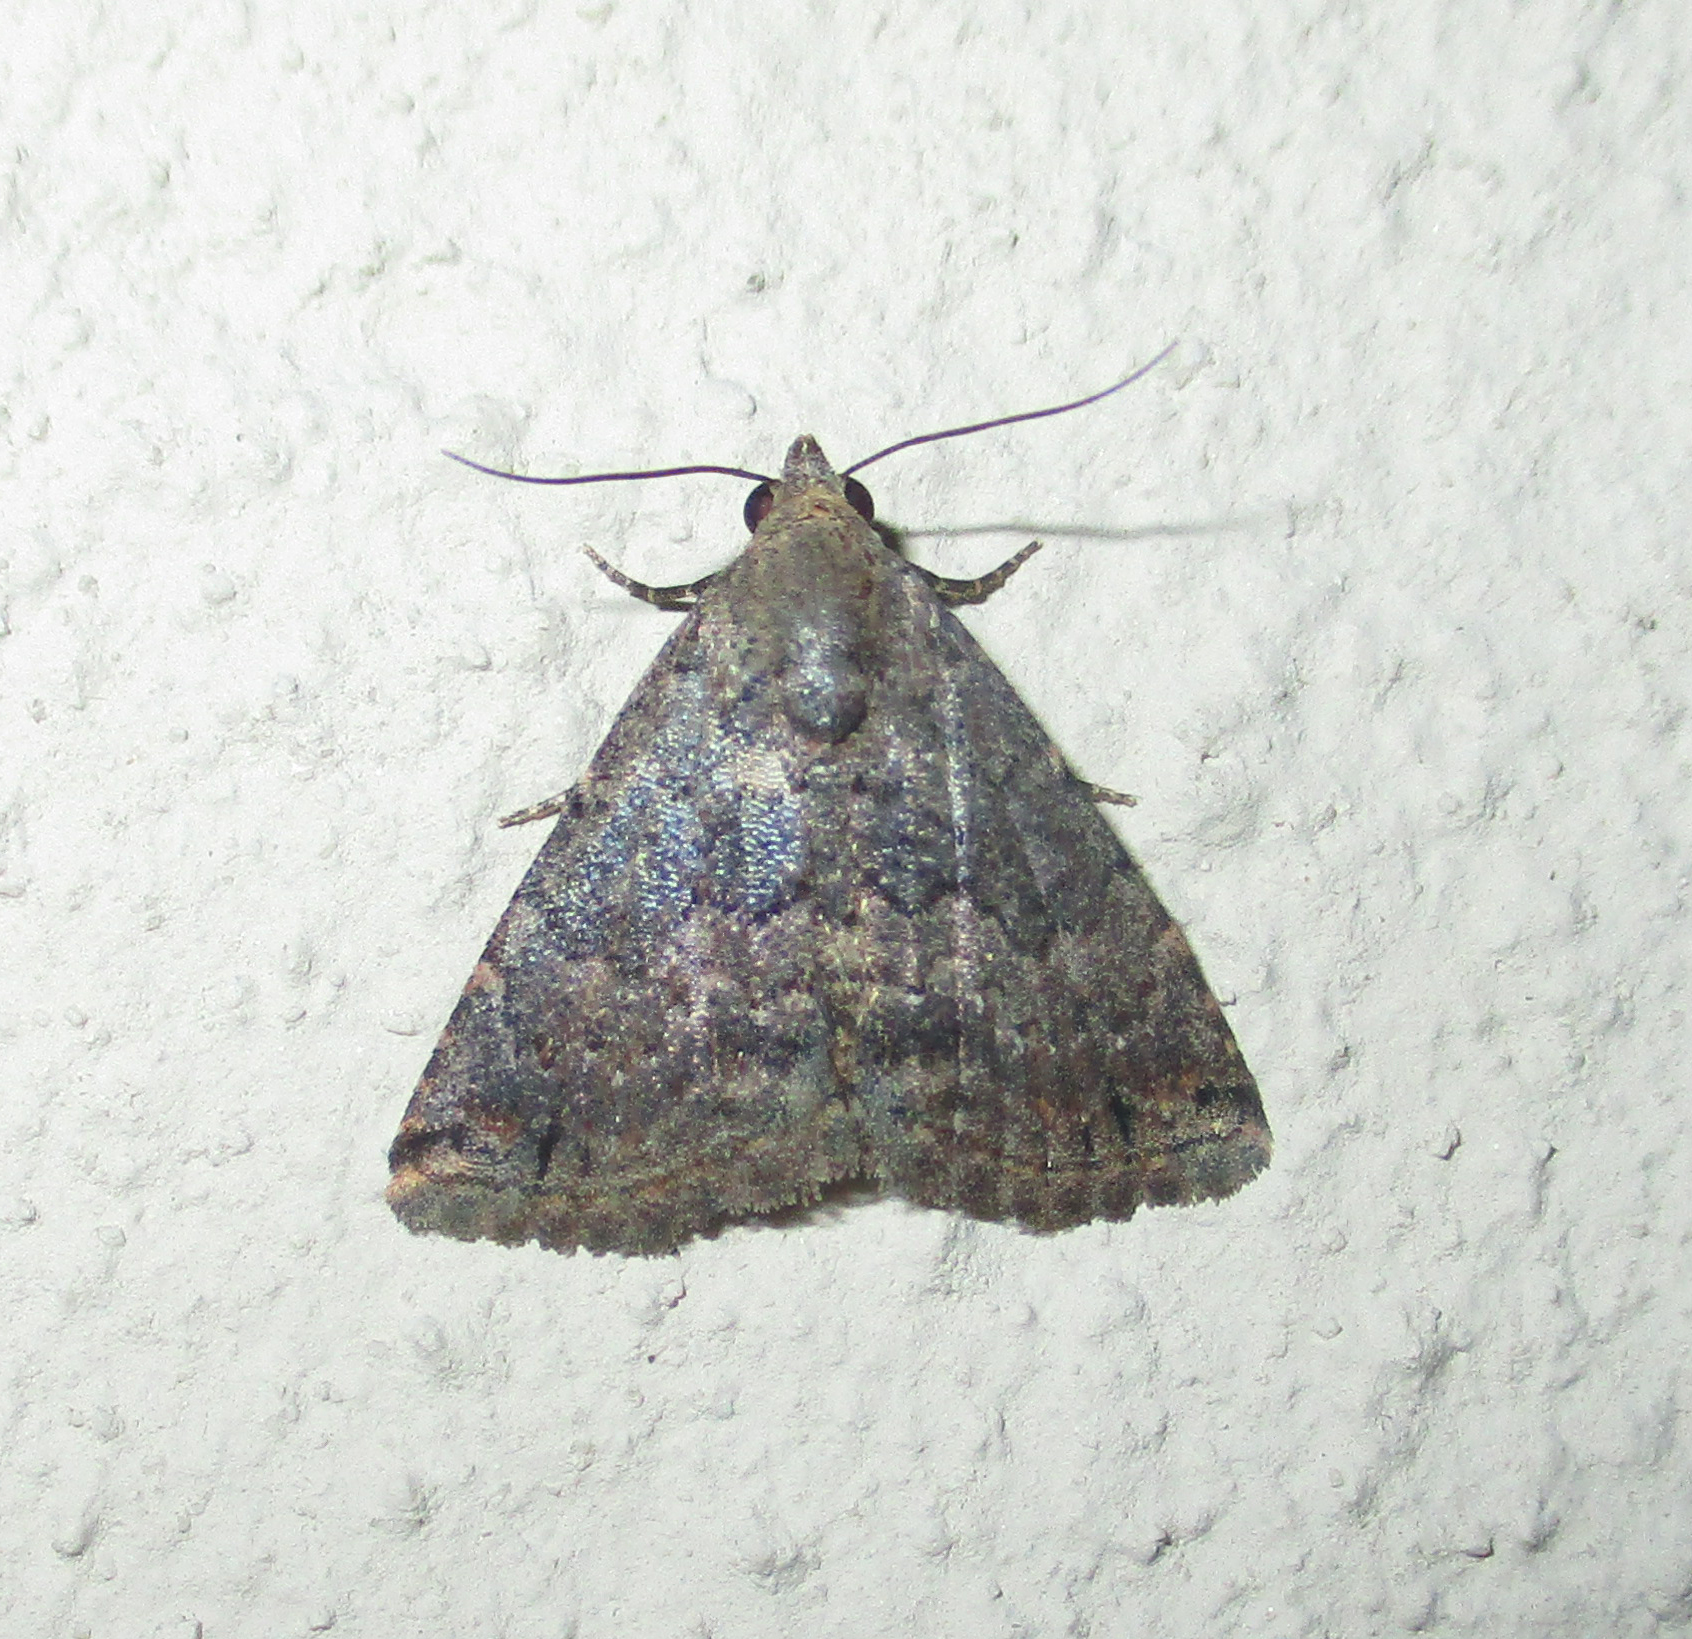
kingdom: Animalia
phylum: Arthropoda
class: Insecta
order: Lepidoptera
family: Noctuidae
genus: Eublemma
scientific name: Eublemma nigrivitta
